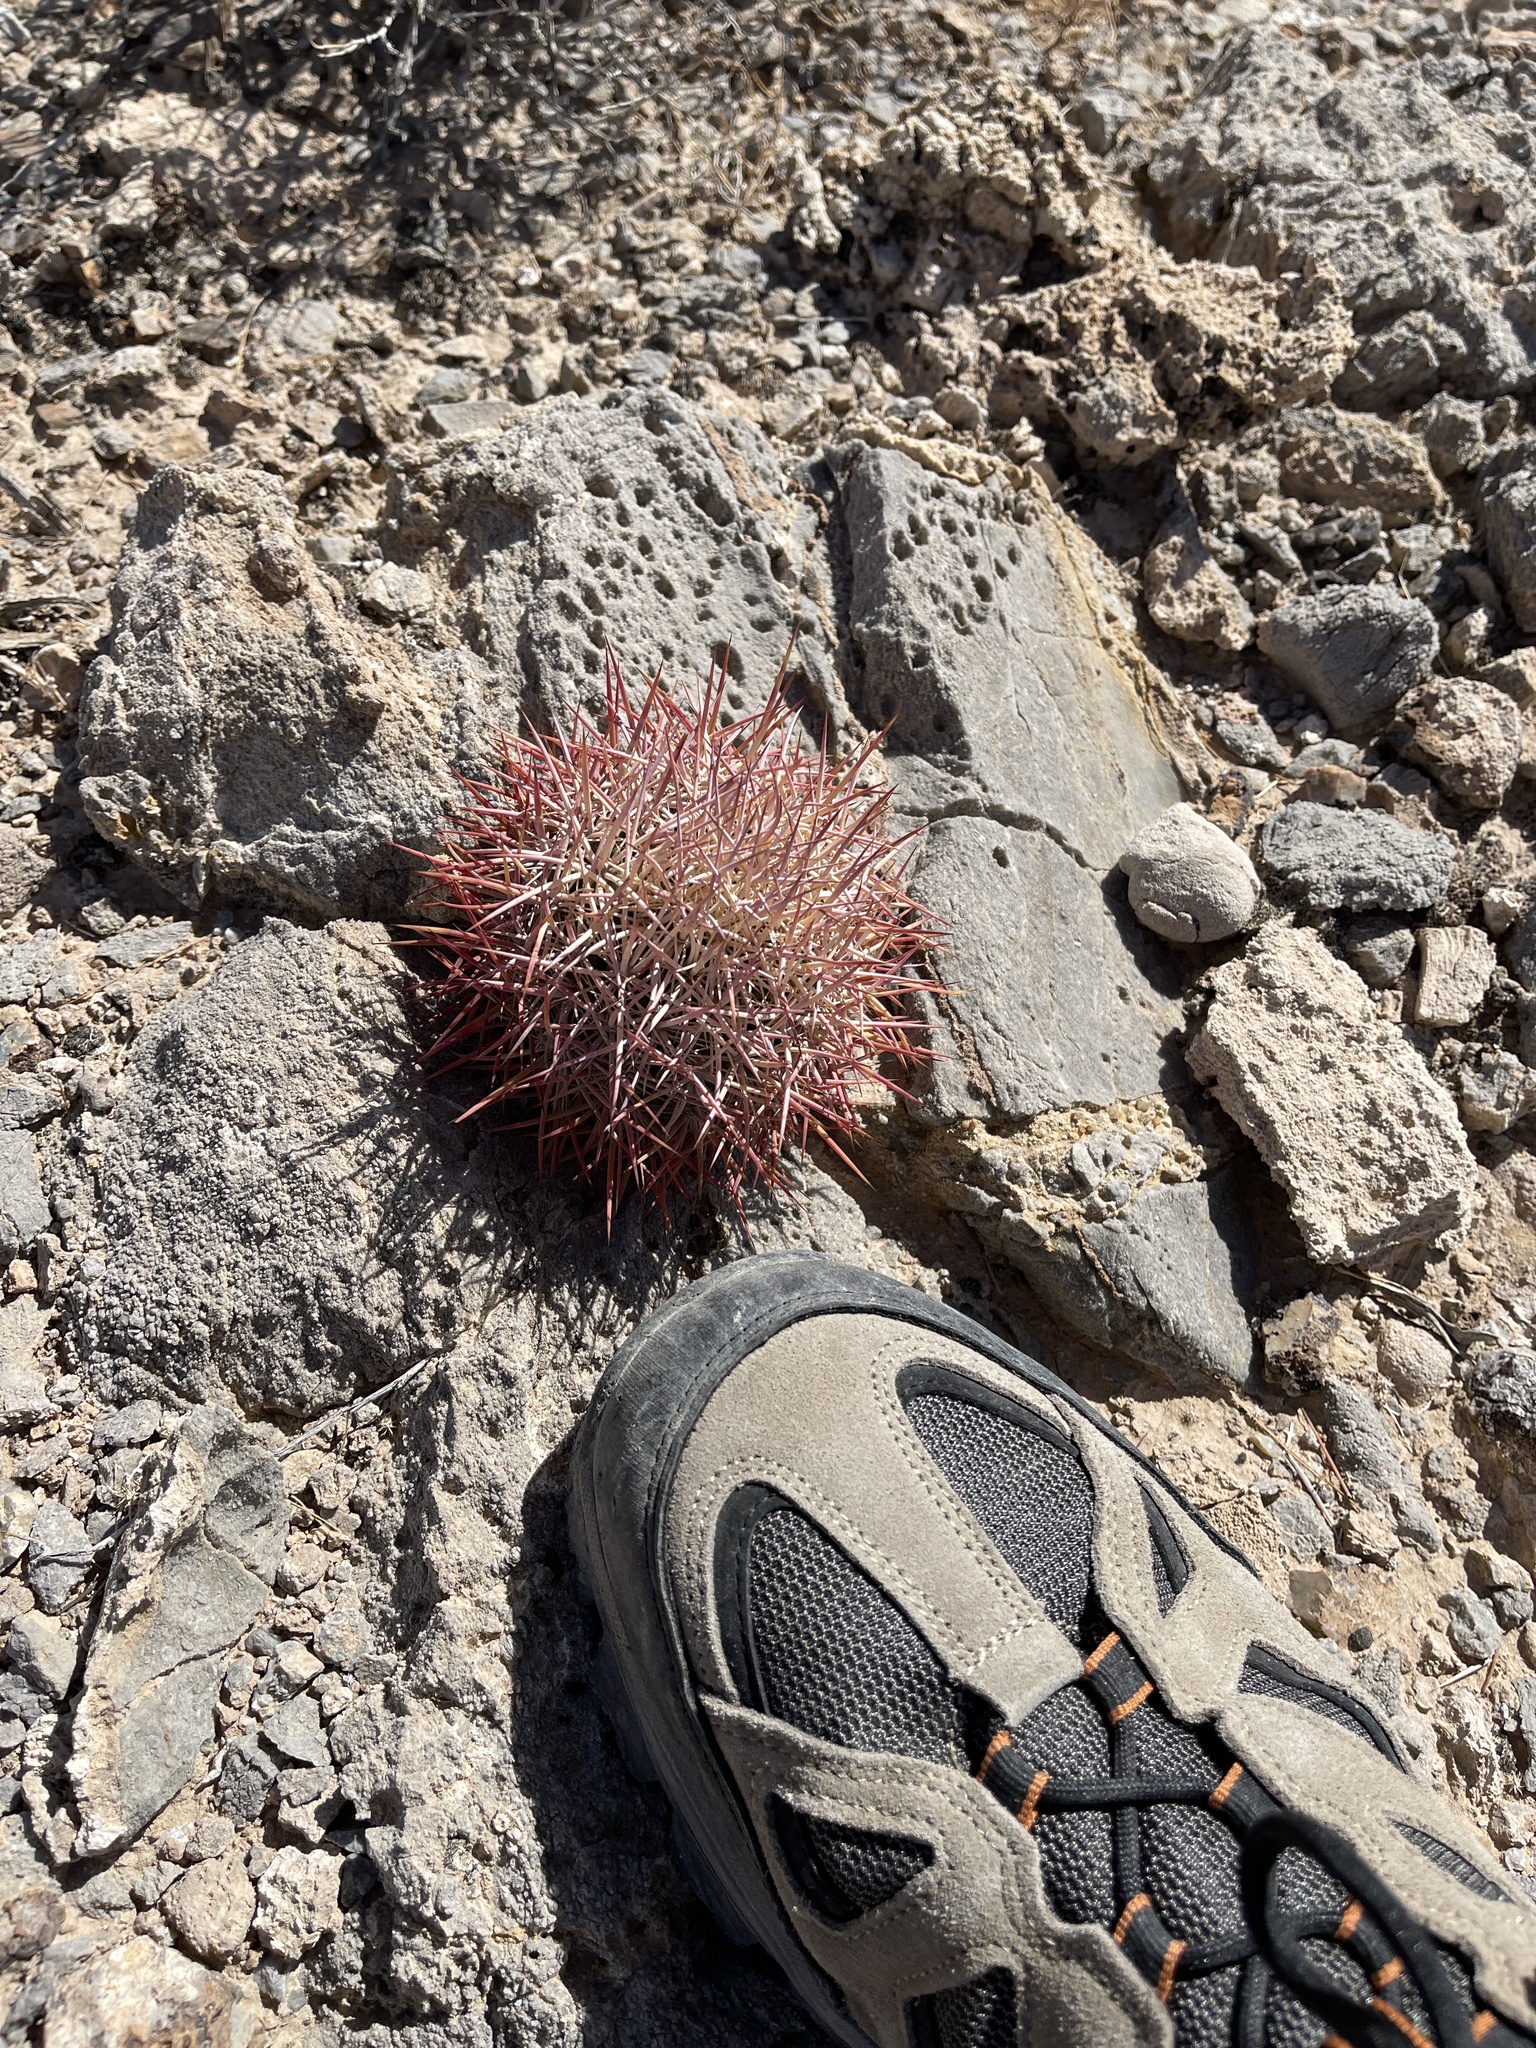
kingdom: Plantae
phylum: Tracheophyta
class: Magnoliopsida
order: Caryophyllales
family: Cactaceae
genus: Sclerocactus
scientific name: Sclerocactus johnsonii
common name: Eight-spine fishhook cactus
